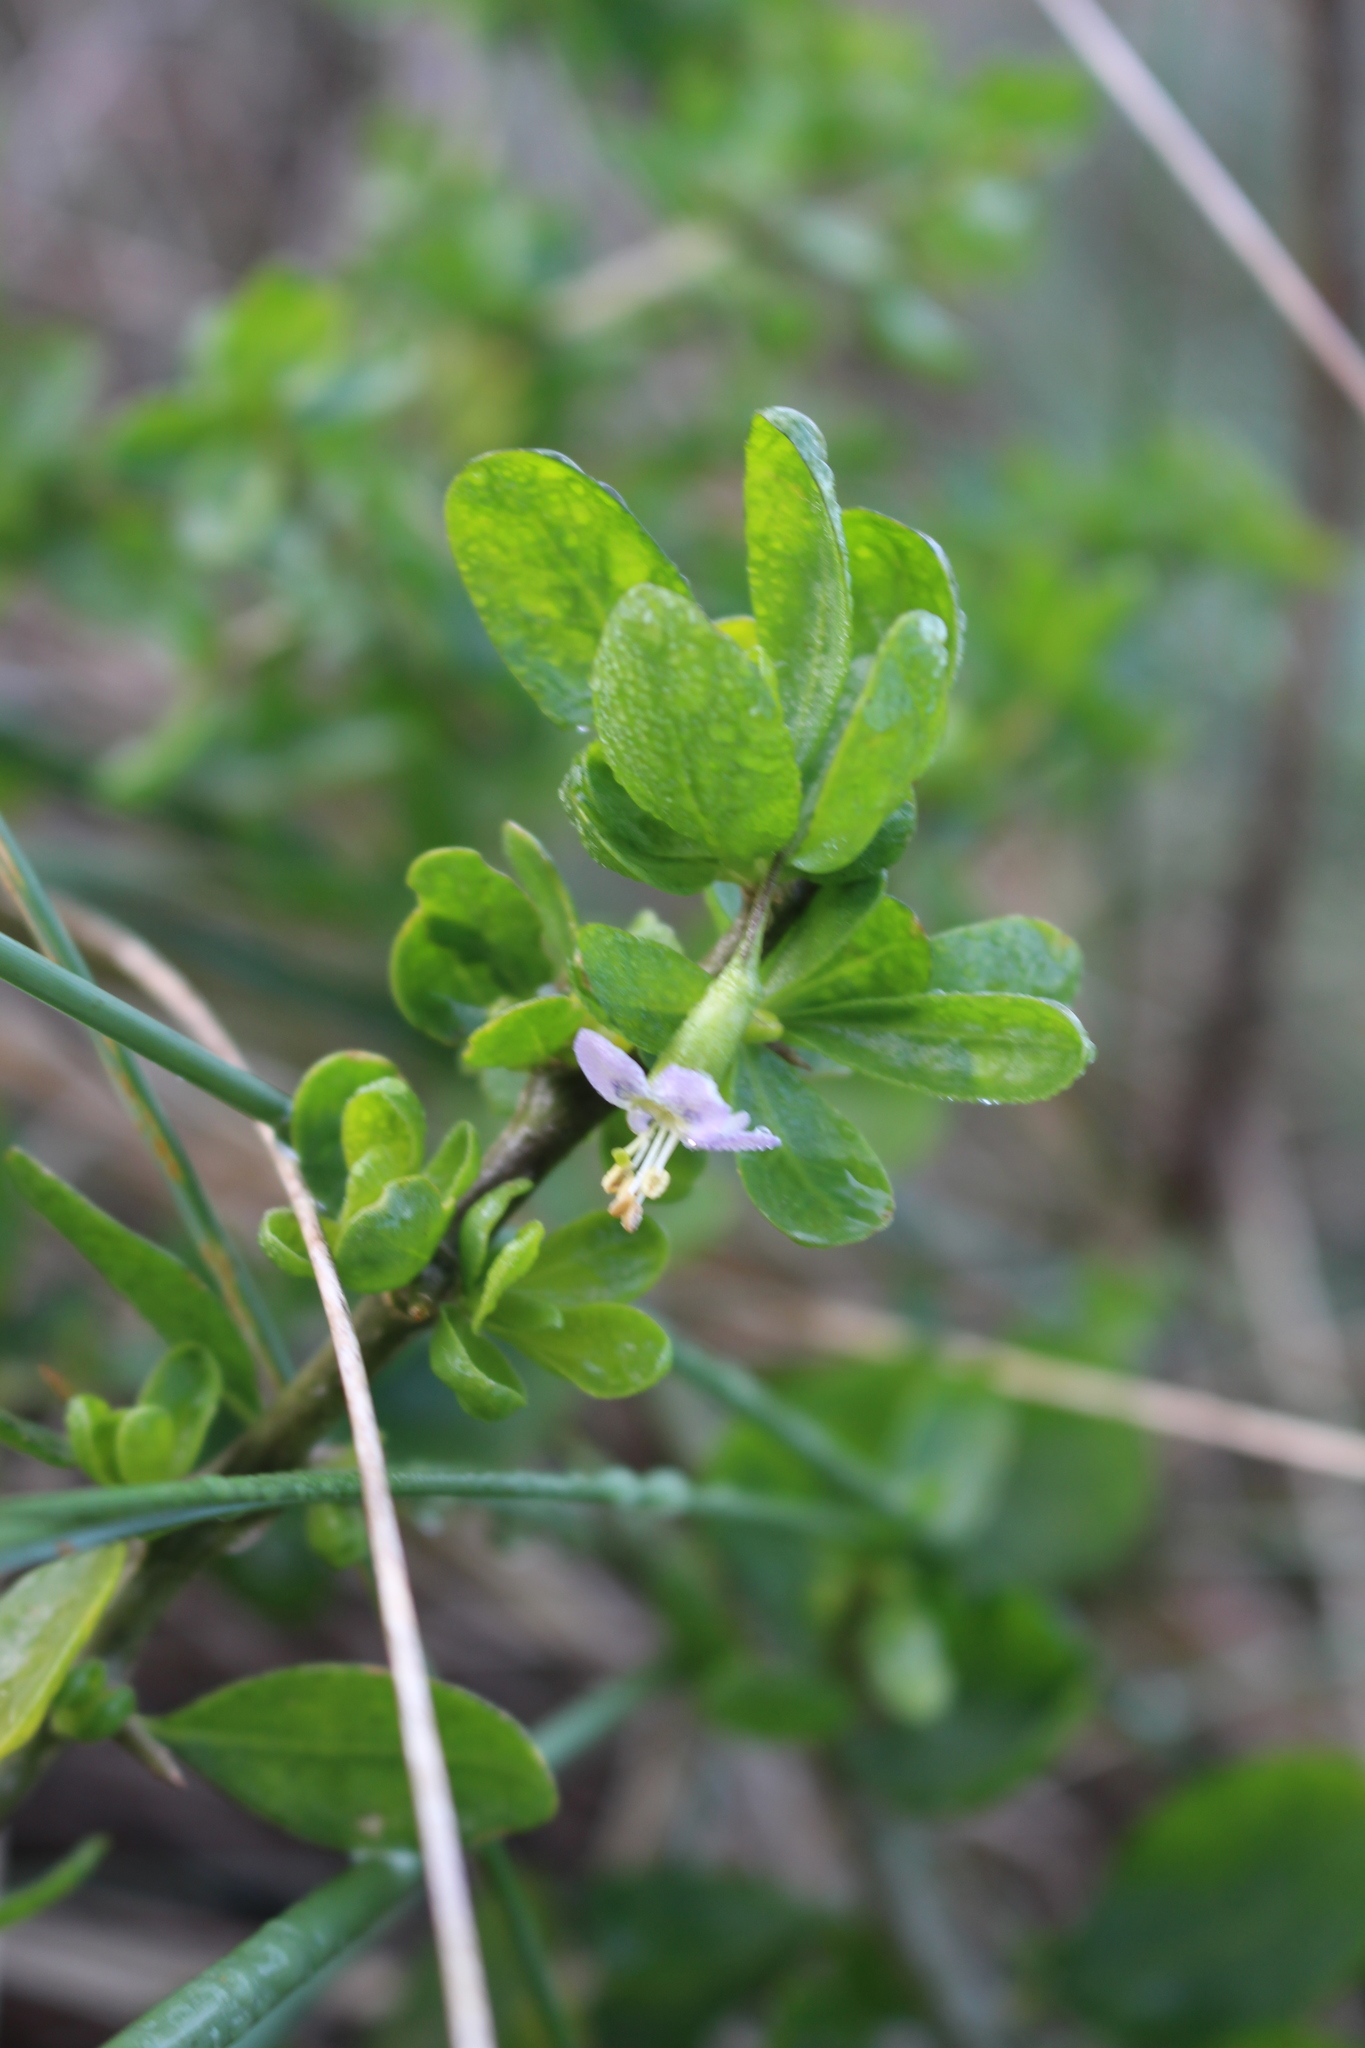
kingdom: Plantae
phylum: Tracheophyta
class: Magnoliopsida
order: Solanales
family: Solanaceae
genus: Lycium
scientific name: Lycium ferocissimum
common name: African boxthorn
